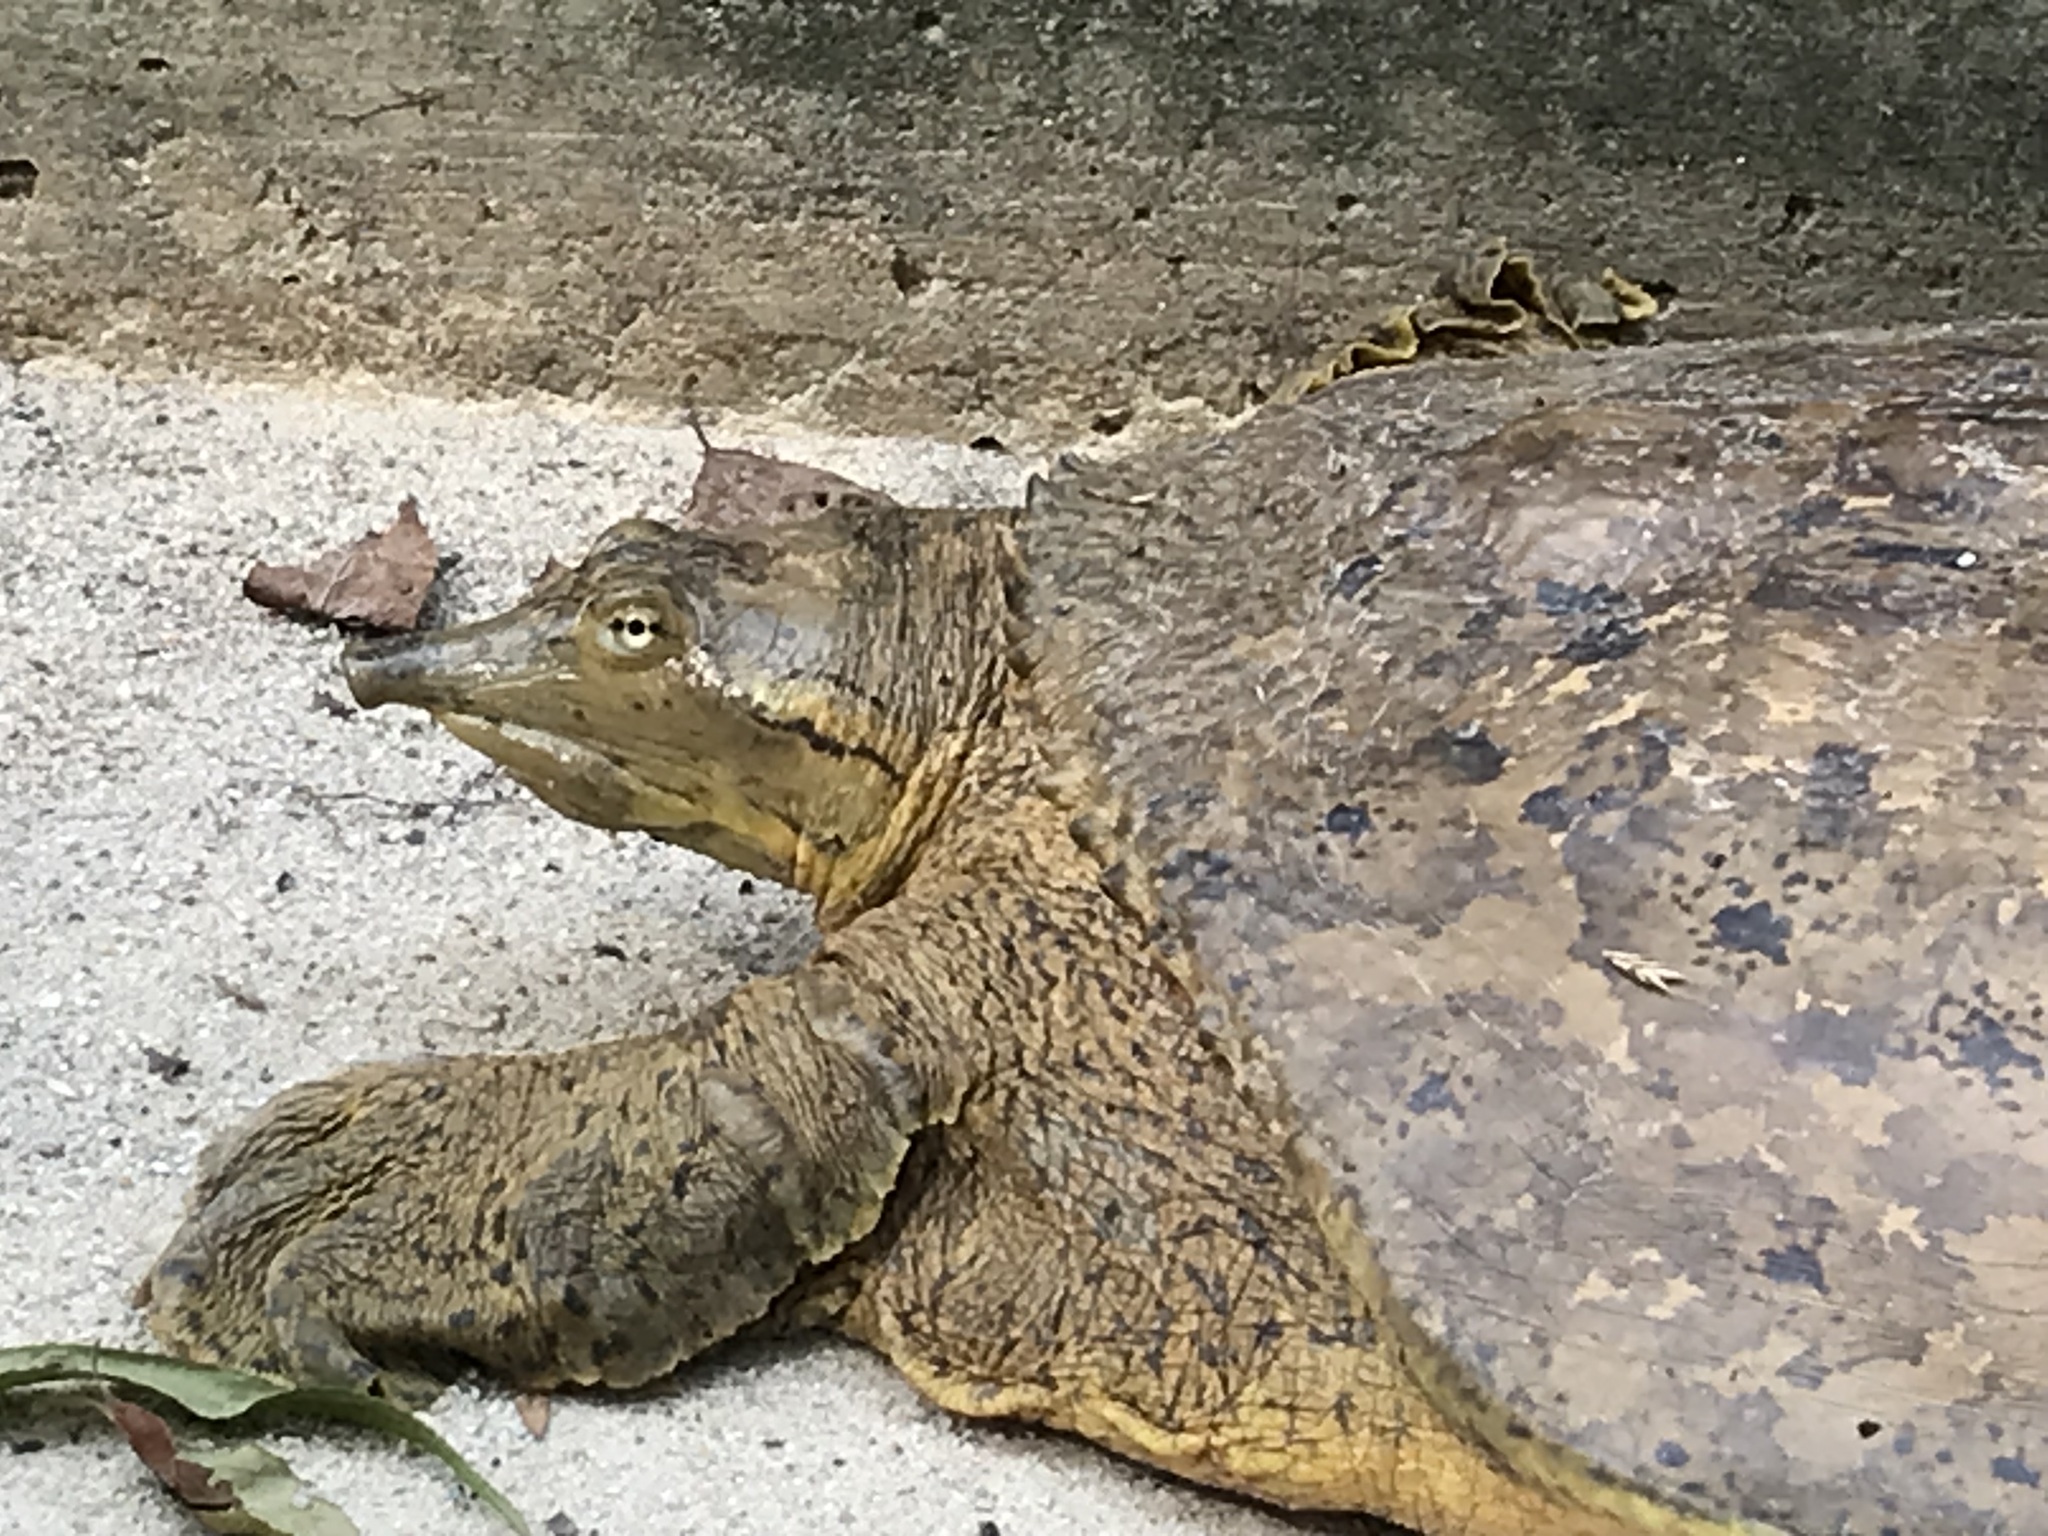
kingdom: Animalia
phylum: Chordata
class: Testudines
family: Trionychidae
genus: Apalone
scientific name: Apalone spinifera
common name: Spiny softshell turtle
